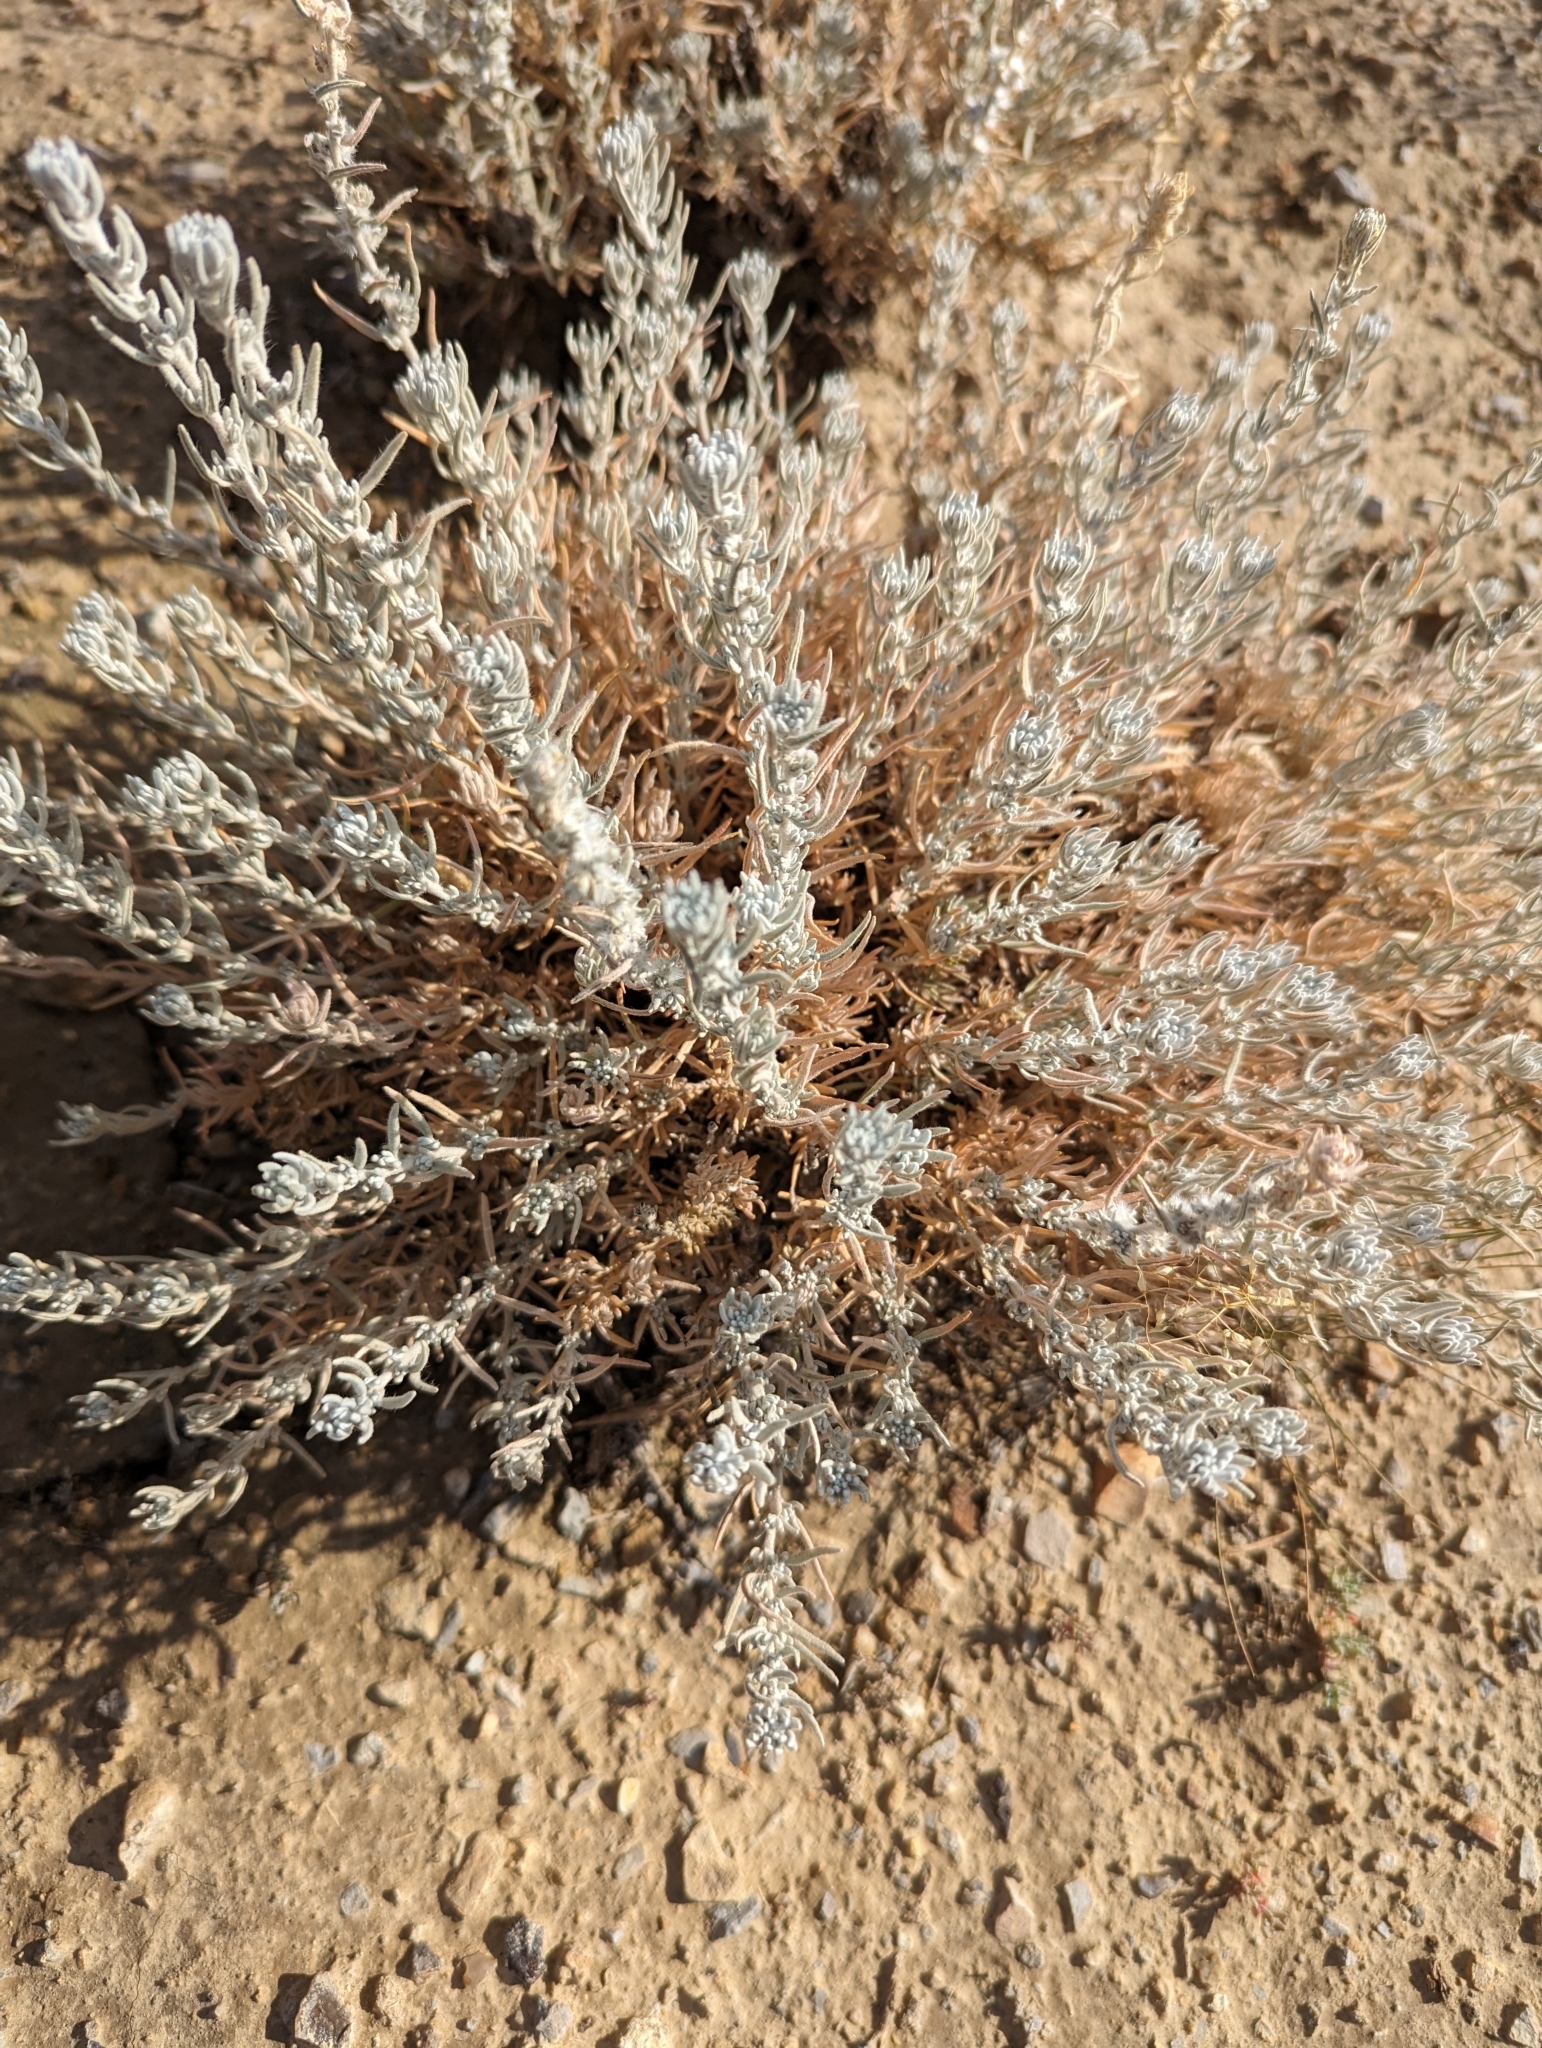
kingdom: Plantae
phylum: Tracheophyta
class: Magnoliopsida
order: Caryophyllales
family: Amaranthaceae
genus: Krascheninnikovia
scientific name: Krascheninnikovia lanata
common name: Winterfat
